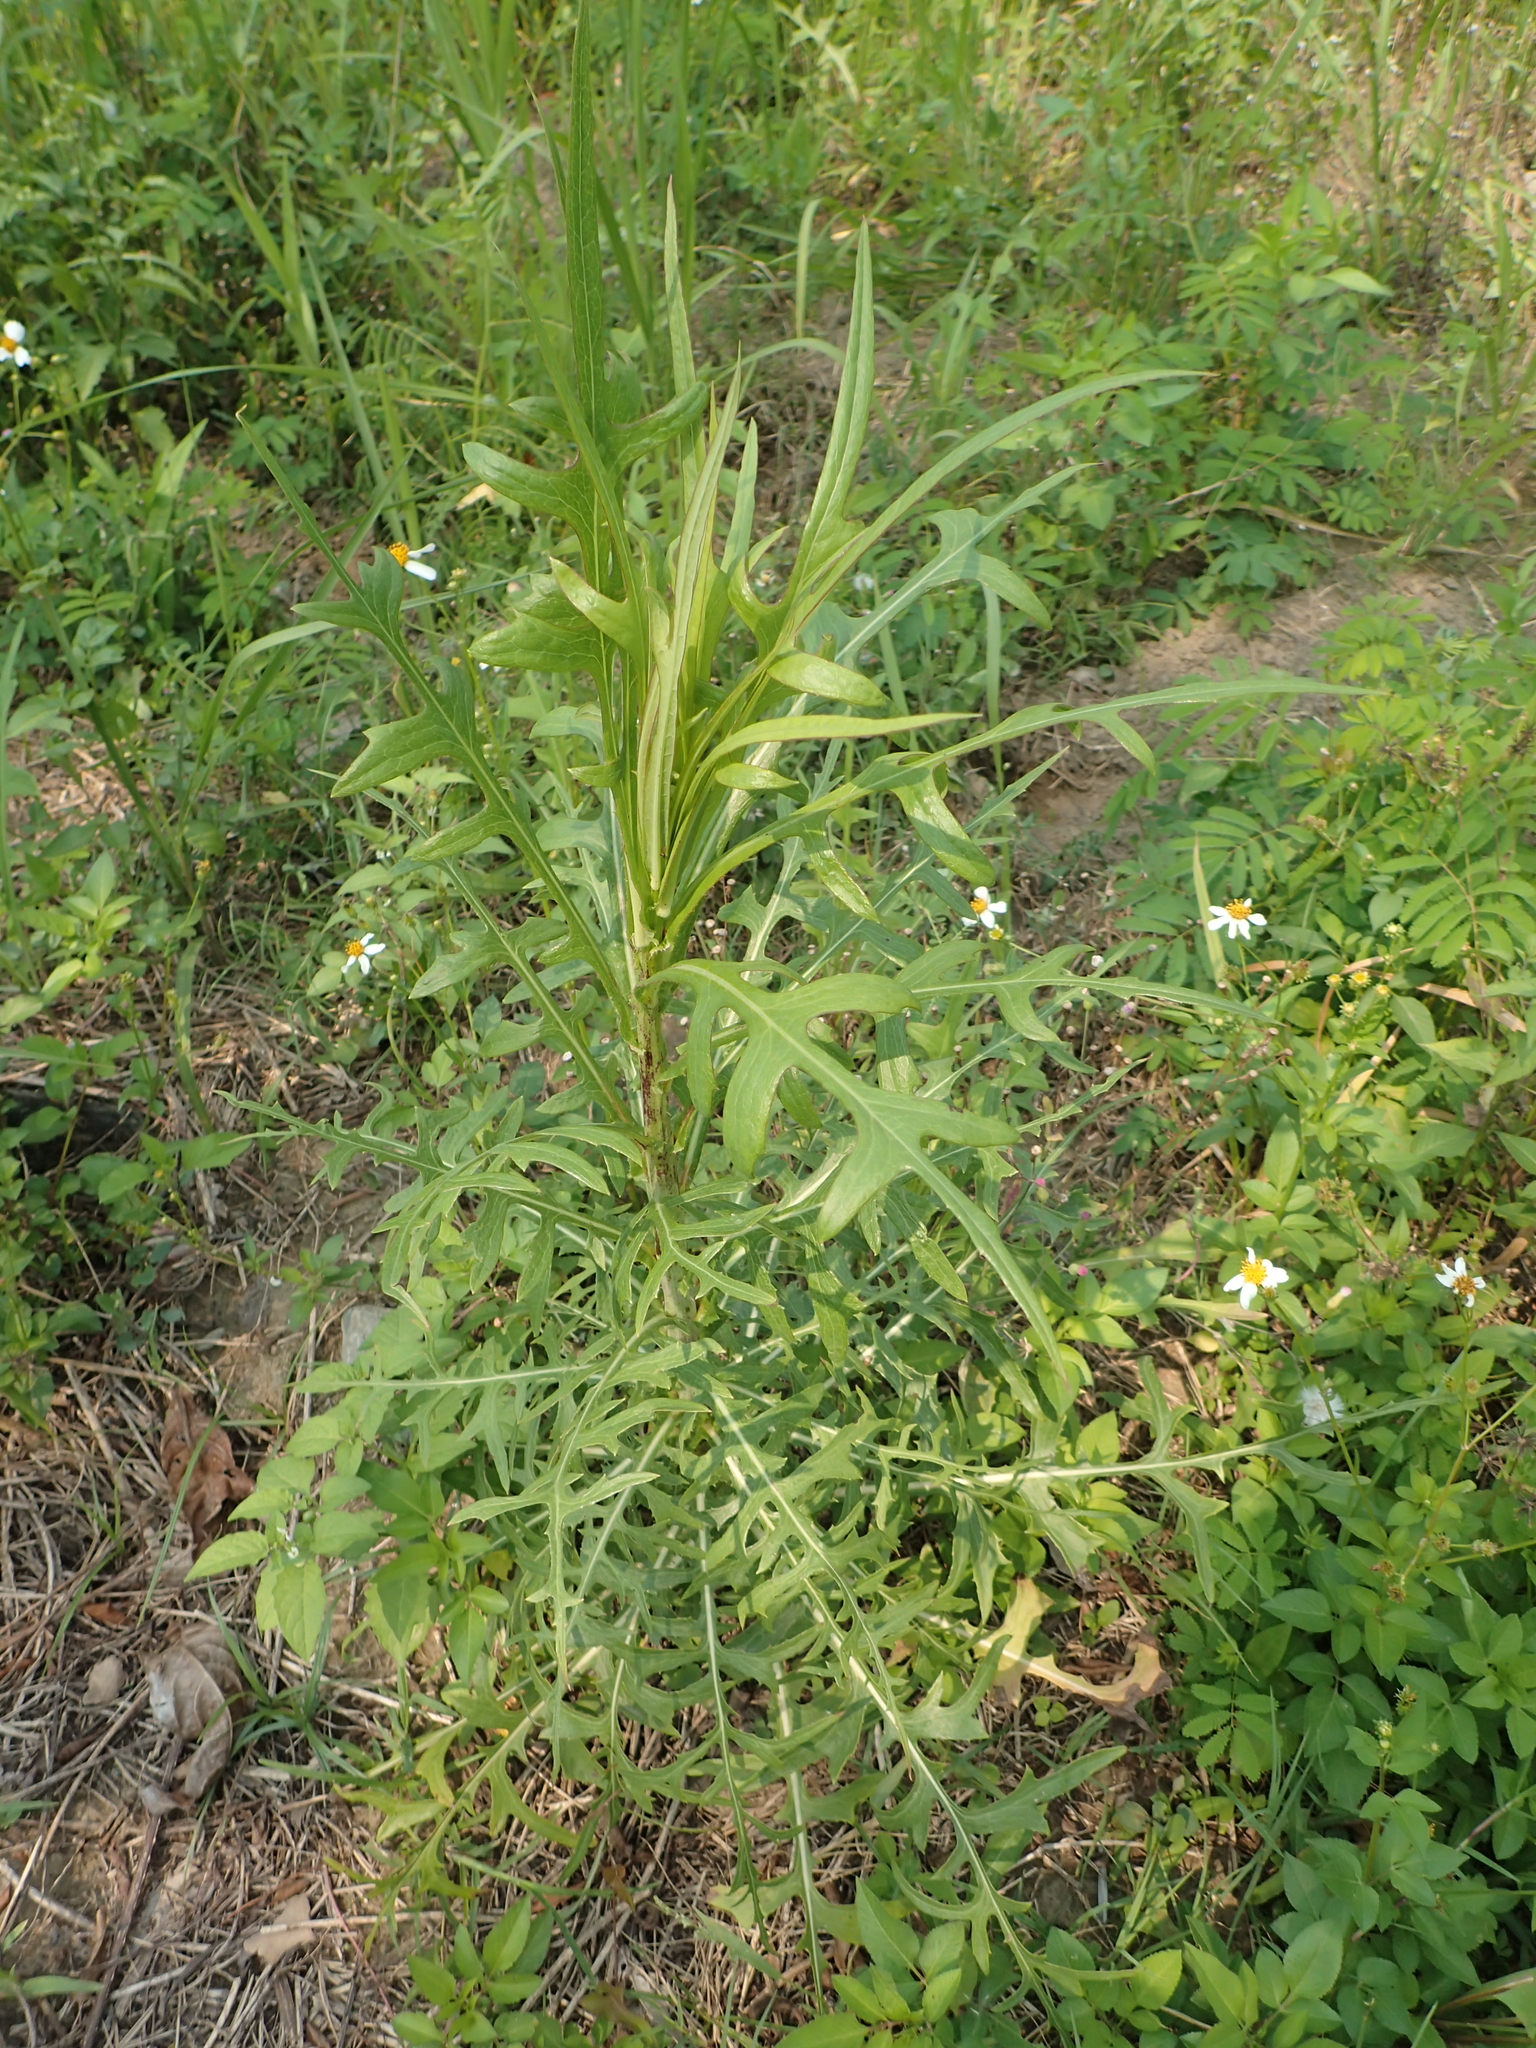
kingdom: Plantae
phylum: Tracheophyta
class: Magnoliopsida
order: Asterales
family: Asteraceae
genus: Lactuca
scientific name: Lactuca indica
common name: Wild lettuce
